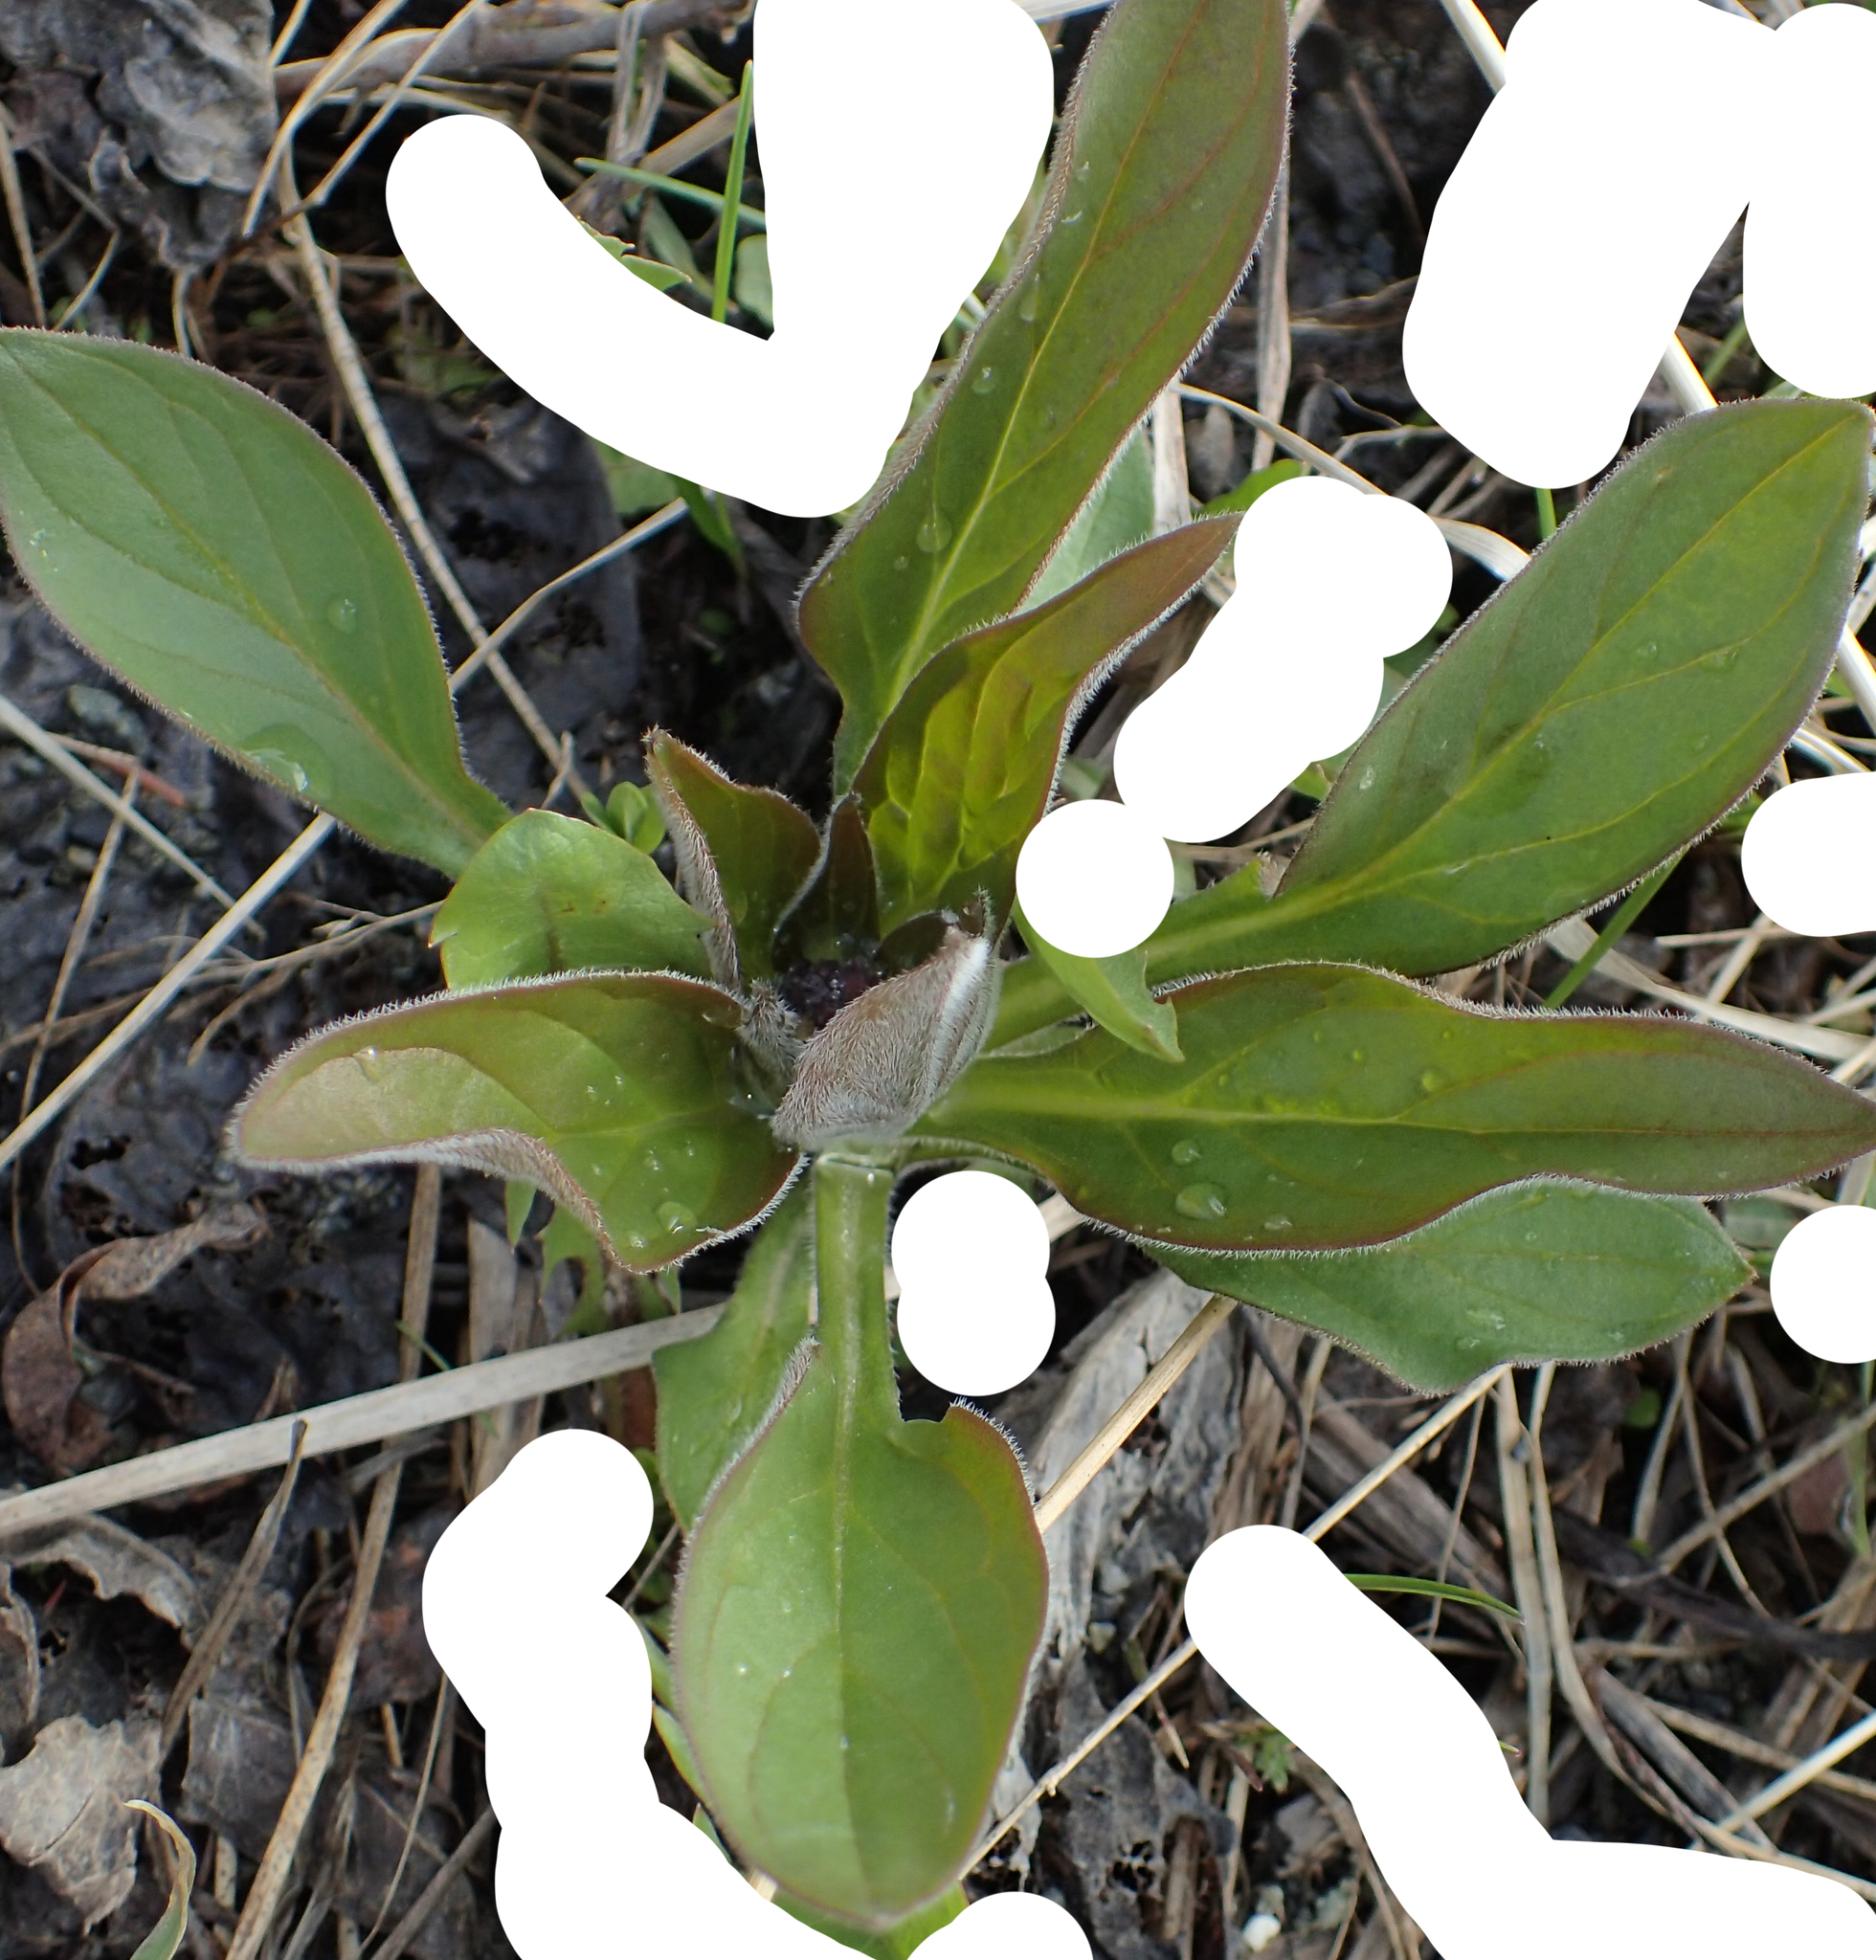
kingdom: Plantae
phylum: Tracheophyta
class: Magnoliopsida
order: Boraginales
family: Boraginaceae
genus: Mertensia
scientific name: Mertensia paniculata
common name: Panicled bluebells
